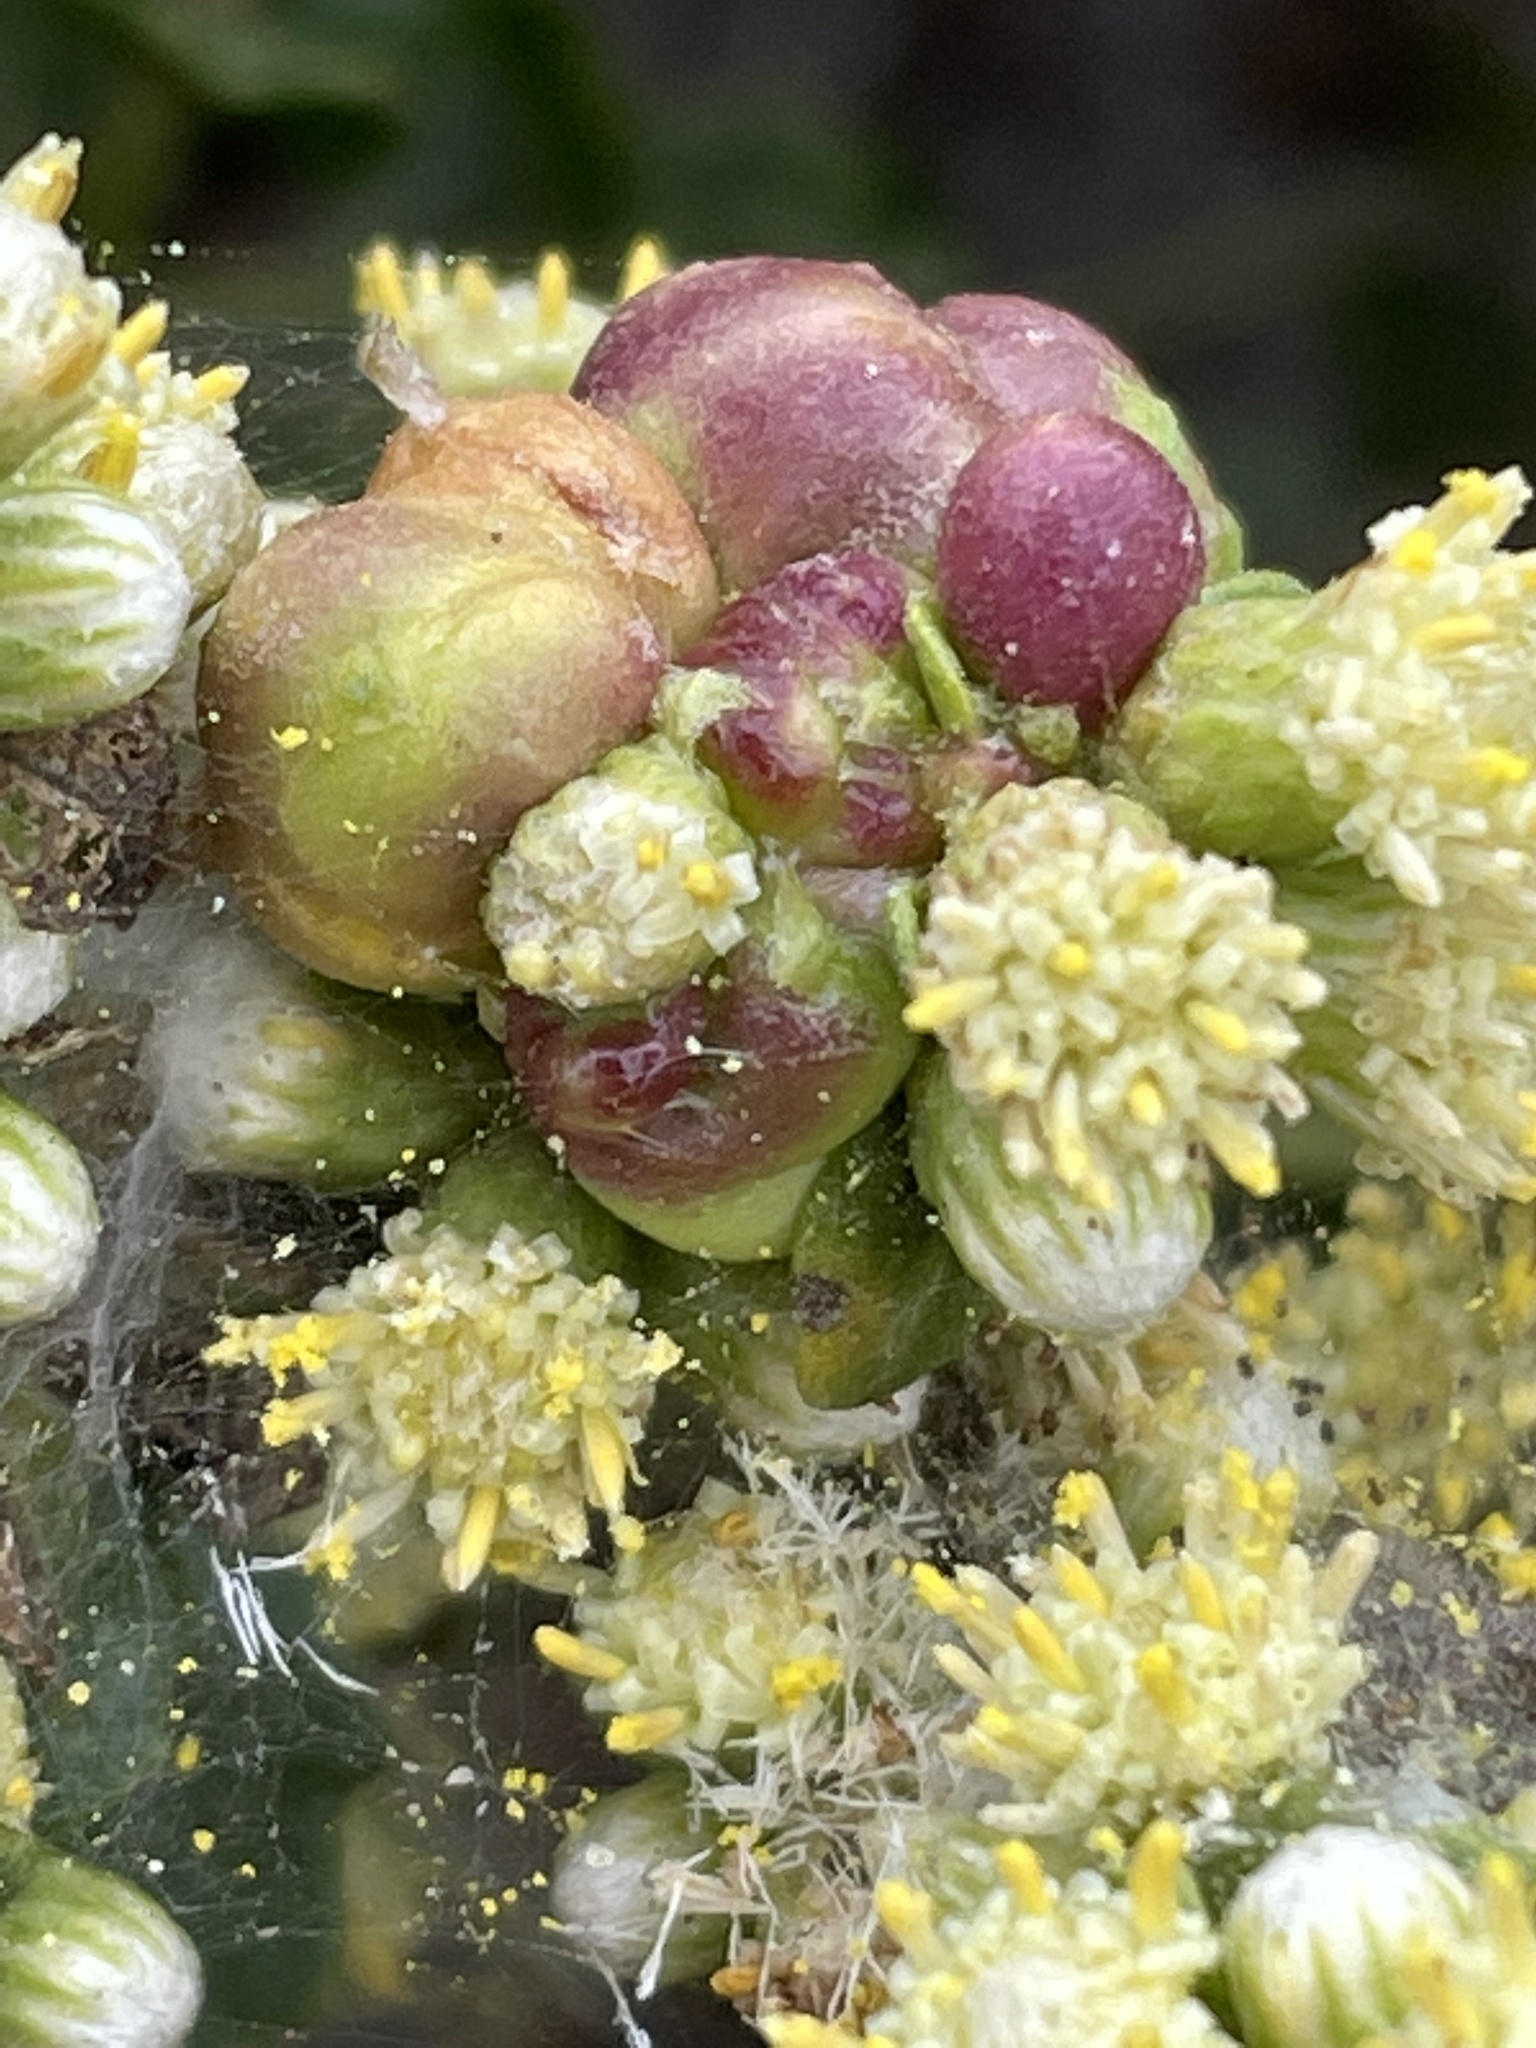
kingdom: Plantae
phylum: Tracheophyta
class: Magnoliopsida
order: Asterales
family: Asteraceae
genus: Baccharis
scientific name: Baccharis pilularis
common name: Coyotebrush
